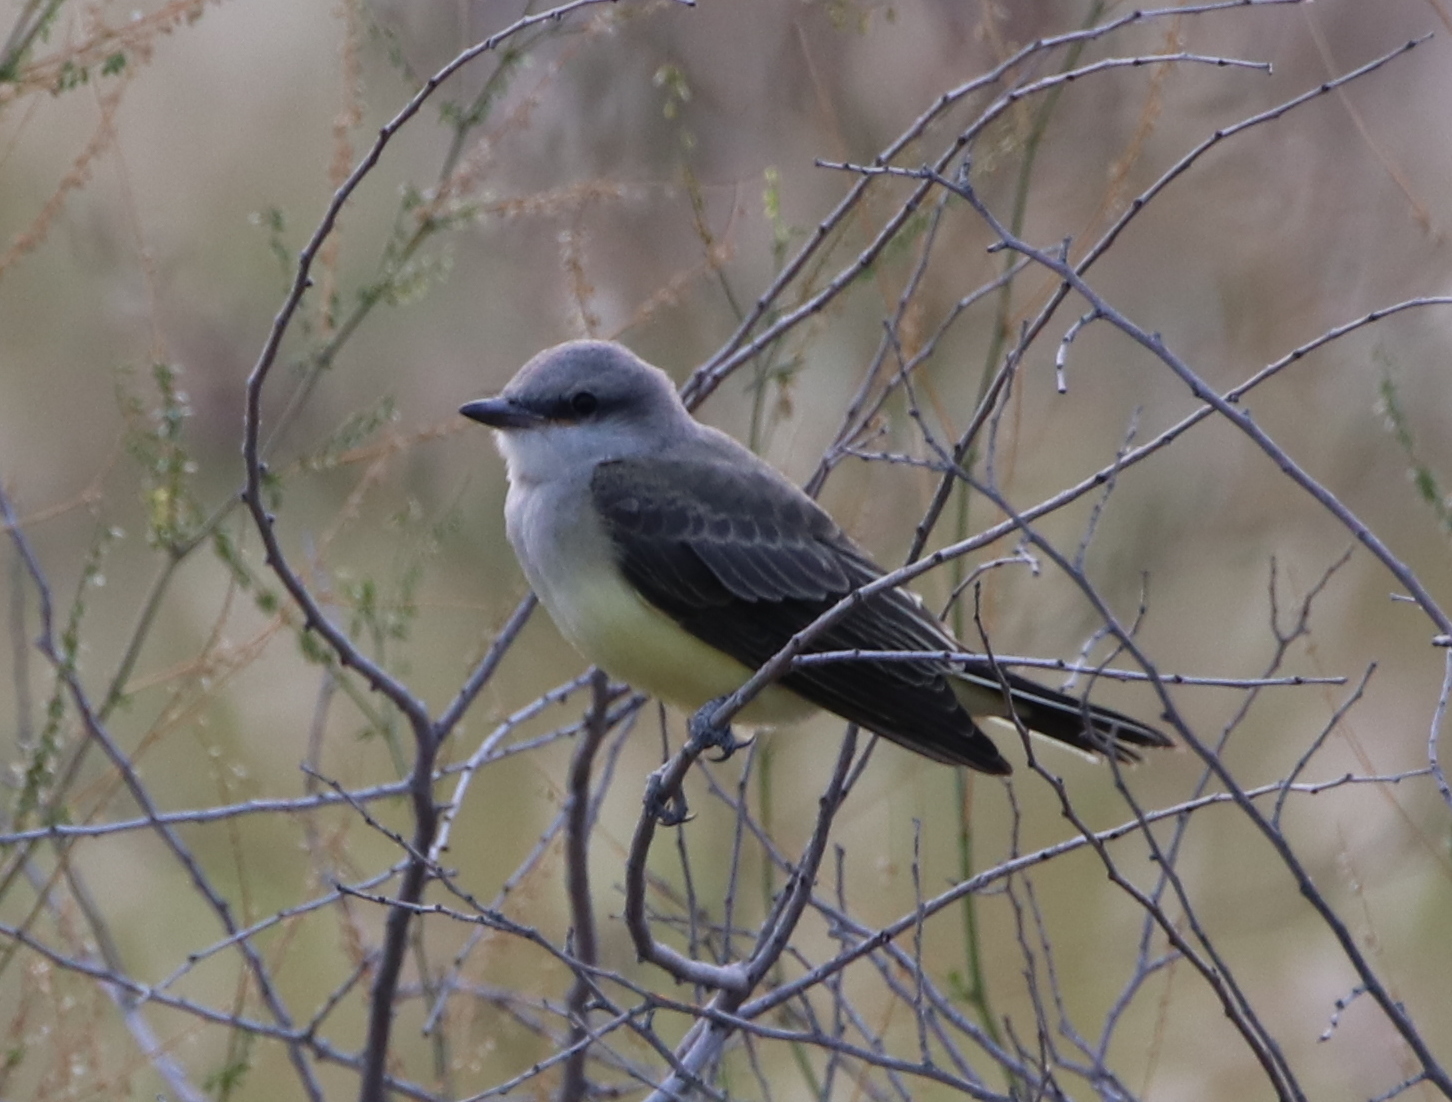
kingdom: Animalia
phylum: Chordata
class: Aves
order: Passeriformes
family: Tyrannidae
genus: Tyrannus
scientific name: Tyrannus verticalis
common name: Western kingbird
